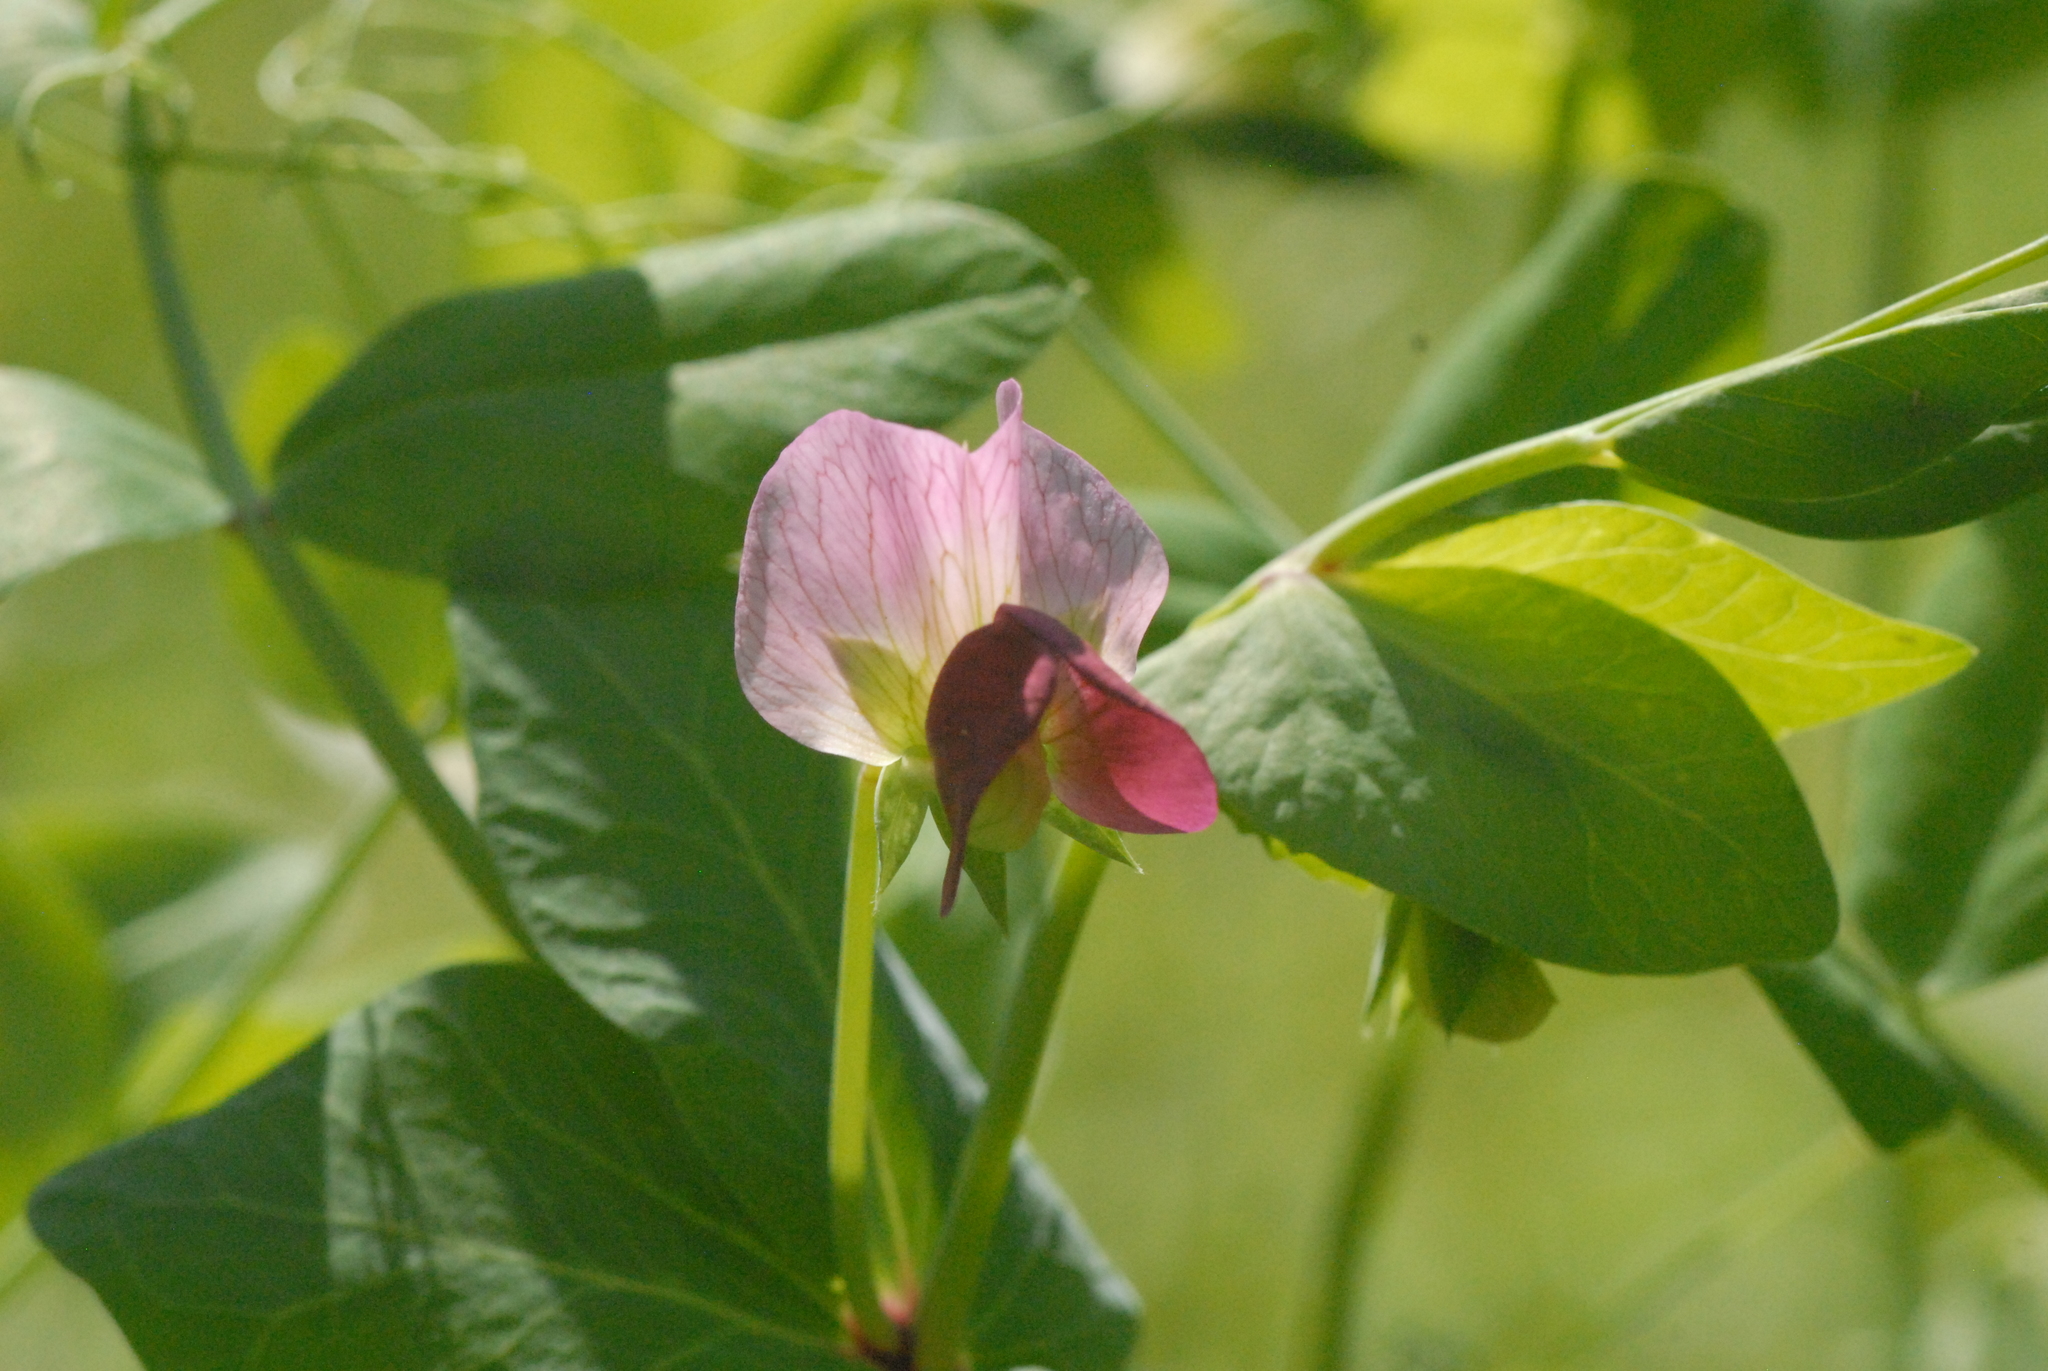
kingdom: Plantae
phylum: Tracheophyta
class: Magnoliopsida
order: Fabales
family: Fabaceae
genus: Lathyrus
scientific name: Lathyrus oleraceus
